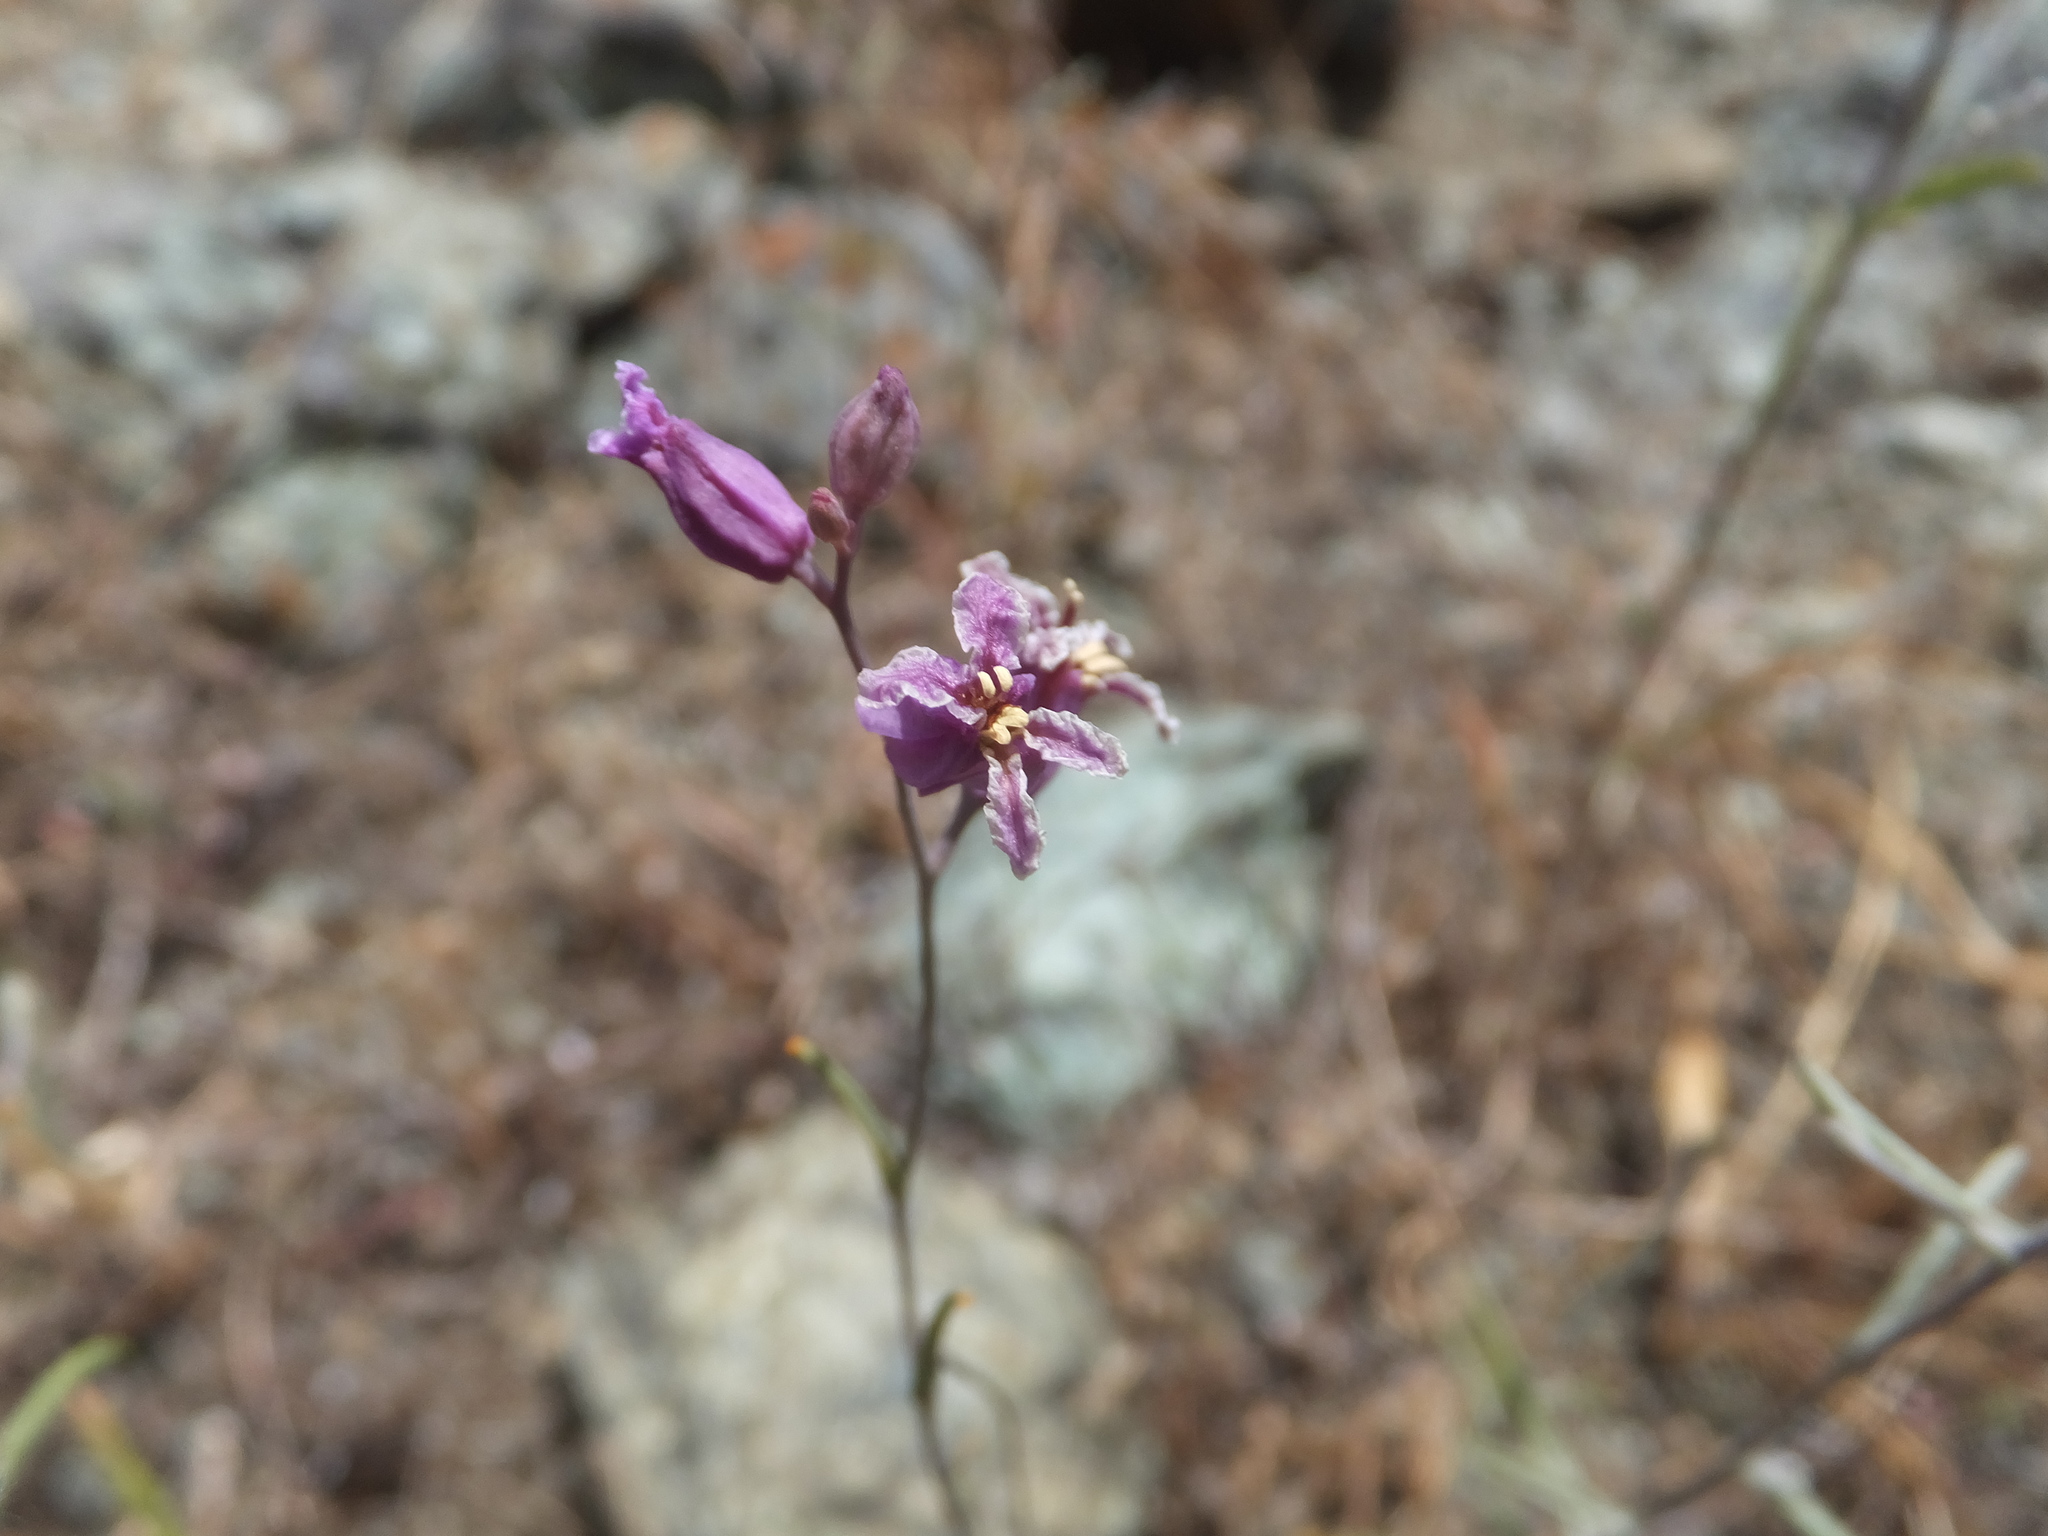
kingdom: Plantae
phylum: Tracheophyta
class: Magnoliopsida
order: Brassicales
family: Brassicaceae
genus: Streptanthus
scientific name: Streptanthus glandulosus
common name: Jewel-flower
